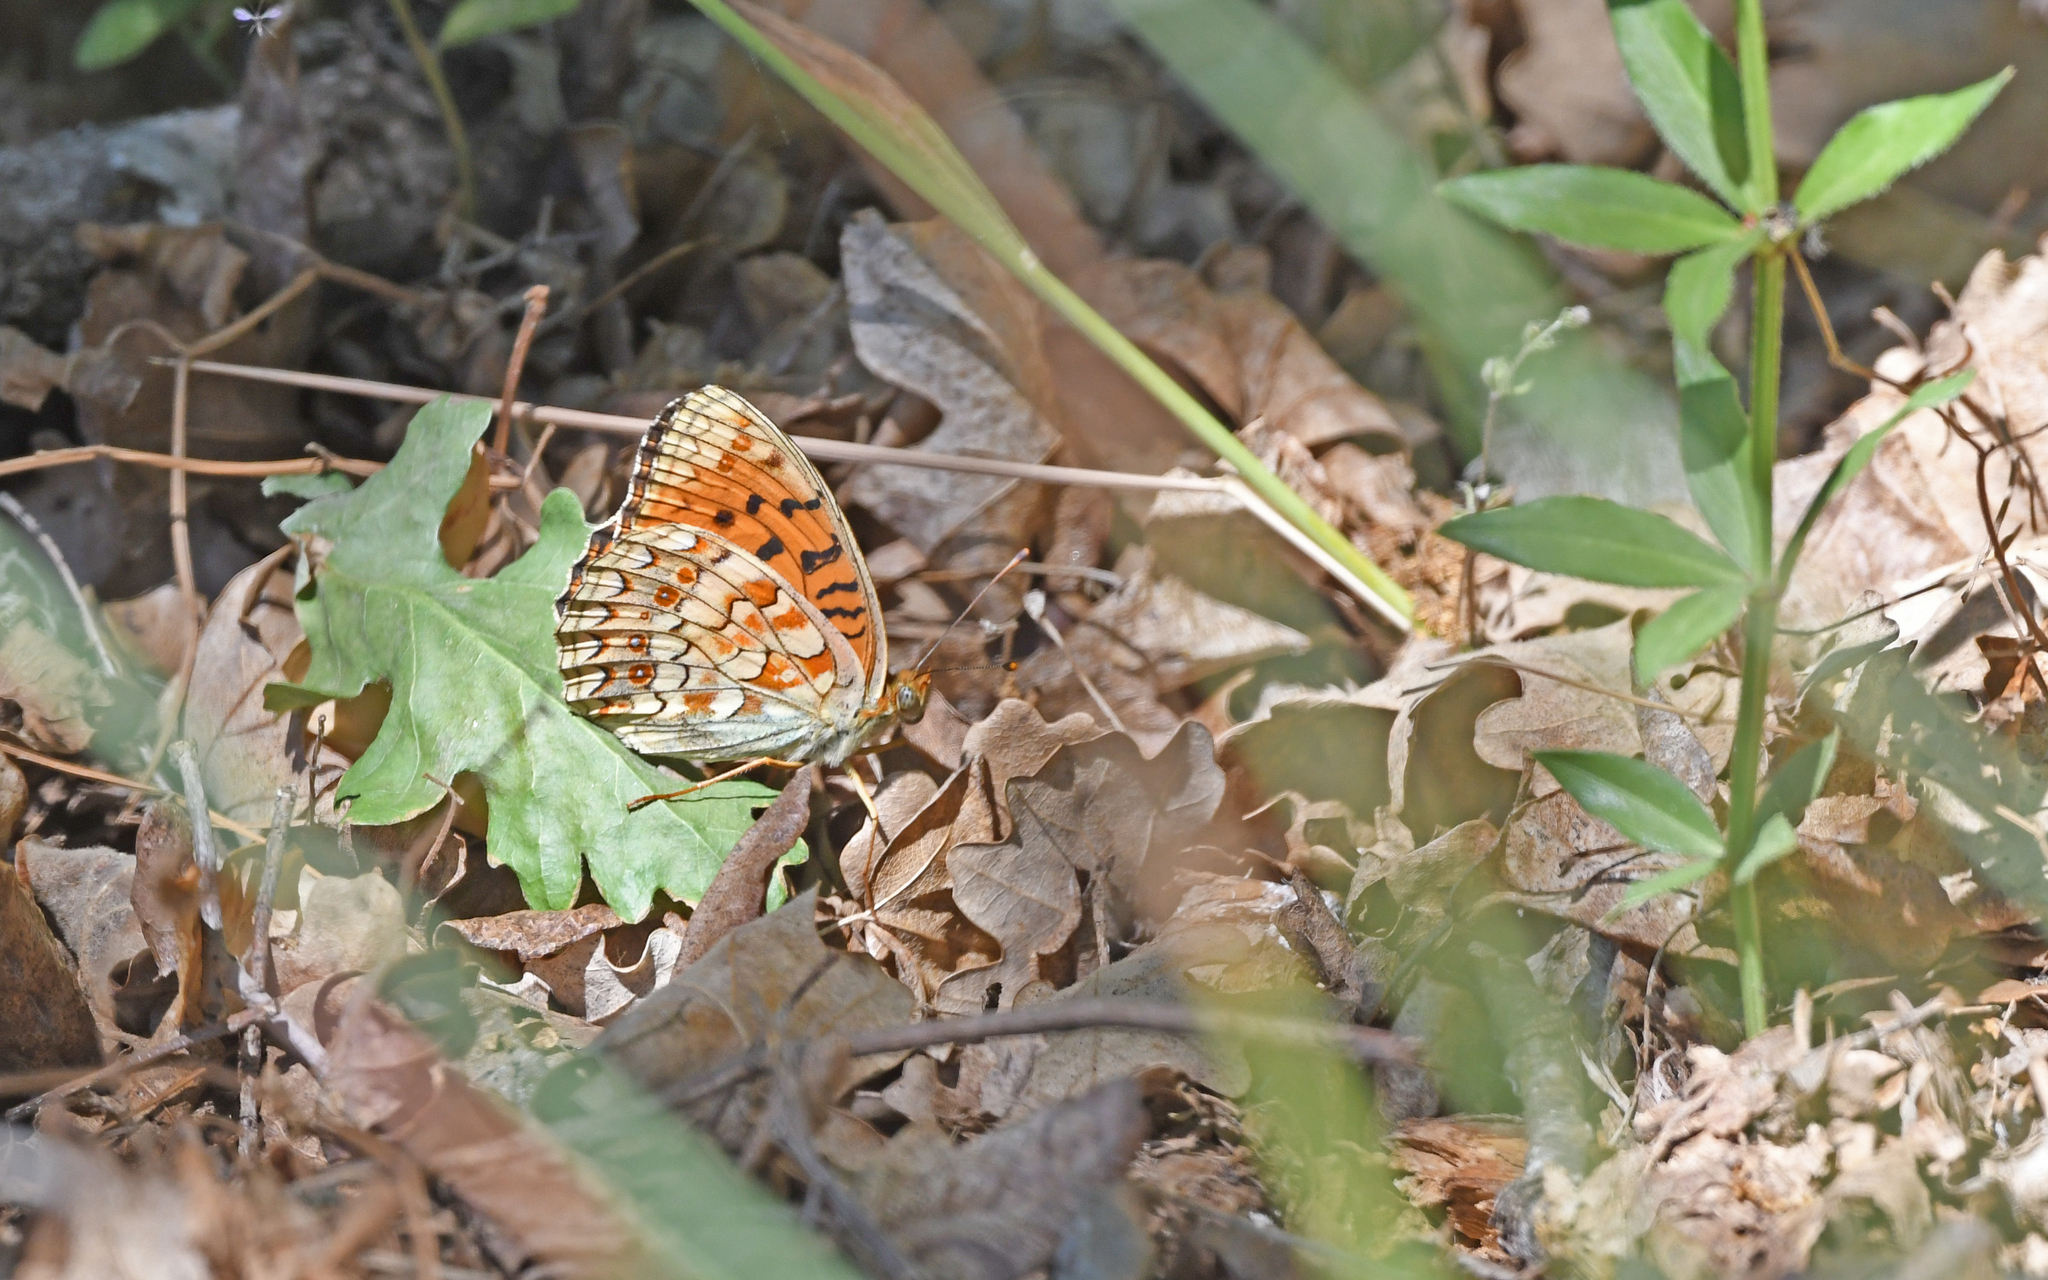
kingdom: Animalia
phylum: Arthropoda
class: Insecta
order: Lepidoptera
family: Nymphalidae
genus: Fabriciana
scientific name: Fabriciana niobe
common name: Niobe fritillary
